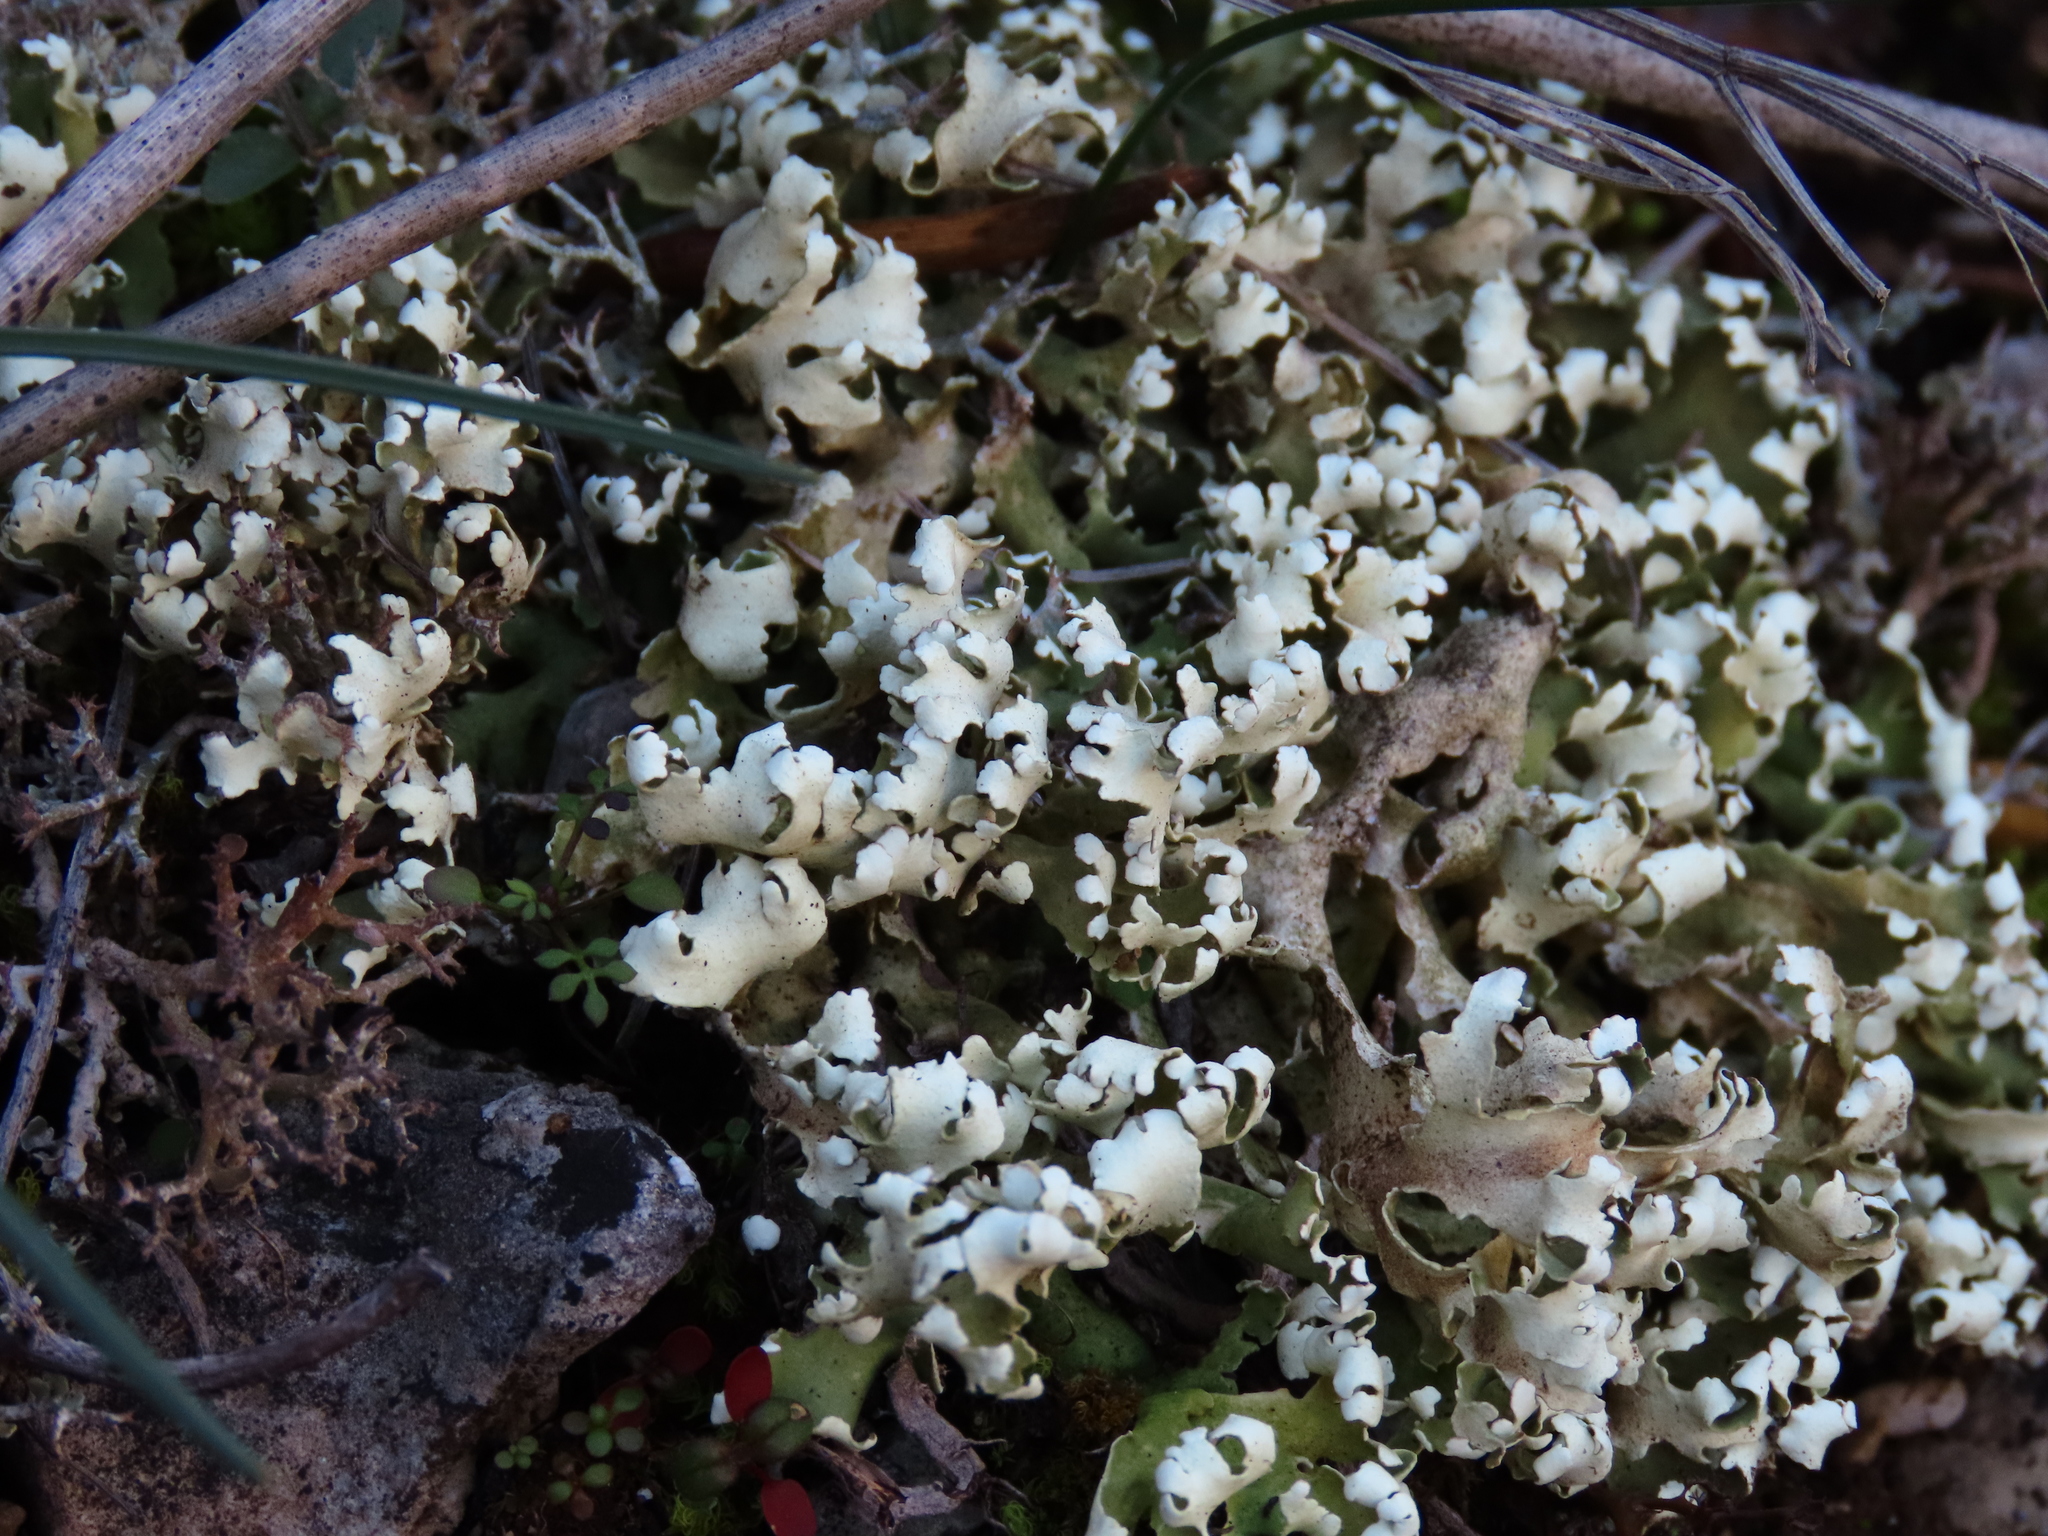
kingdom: Fungi
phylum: Ascomycota
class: Lecanoromycetes
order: Lecanorales
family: Cladoniaceae
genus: Cladonia
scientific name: Cladonia foliacea
